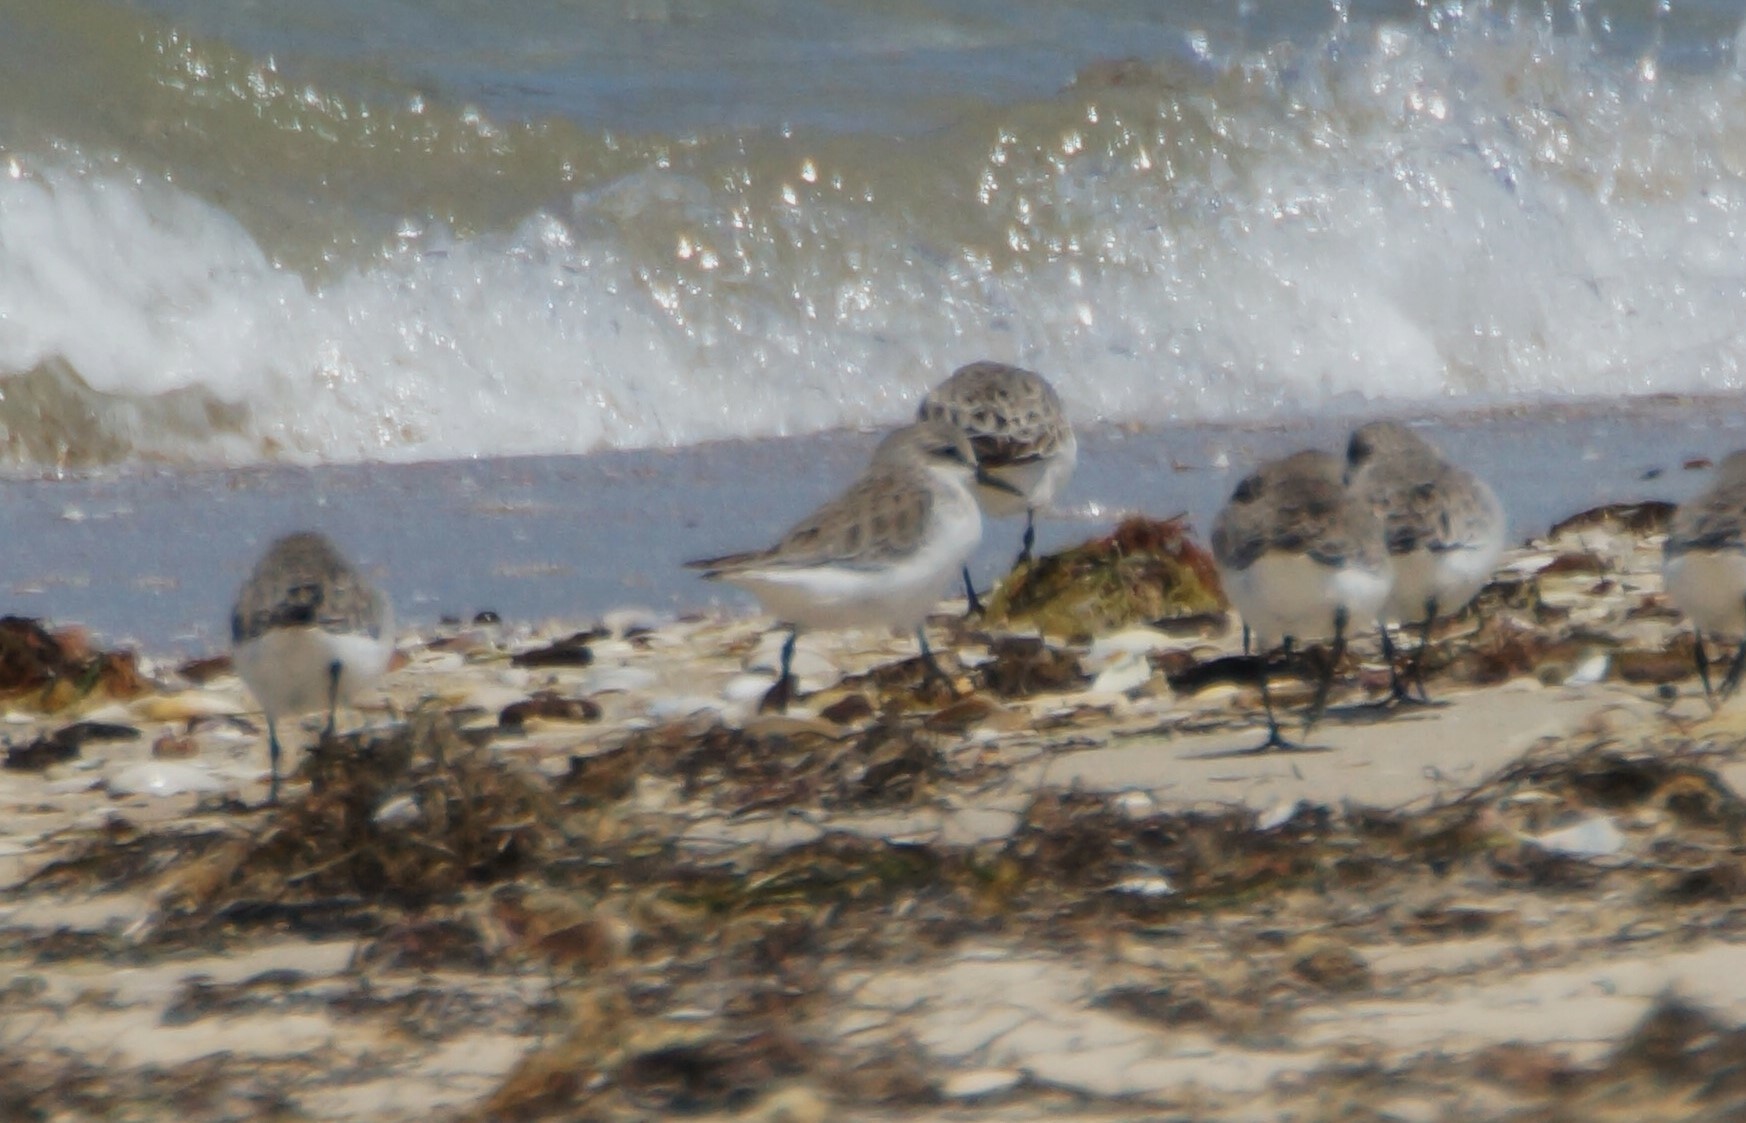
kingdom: Animalia
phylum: Chordata
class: Aves
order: Charadriiformes
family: Scolopacidae
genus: Calidris
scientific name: Calidris ruficollis
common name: Red-necked stint
